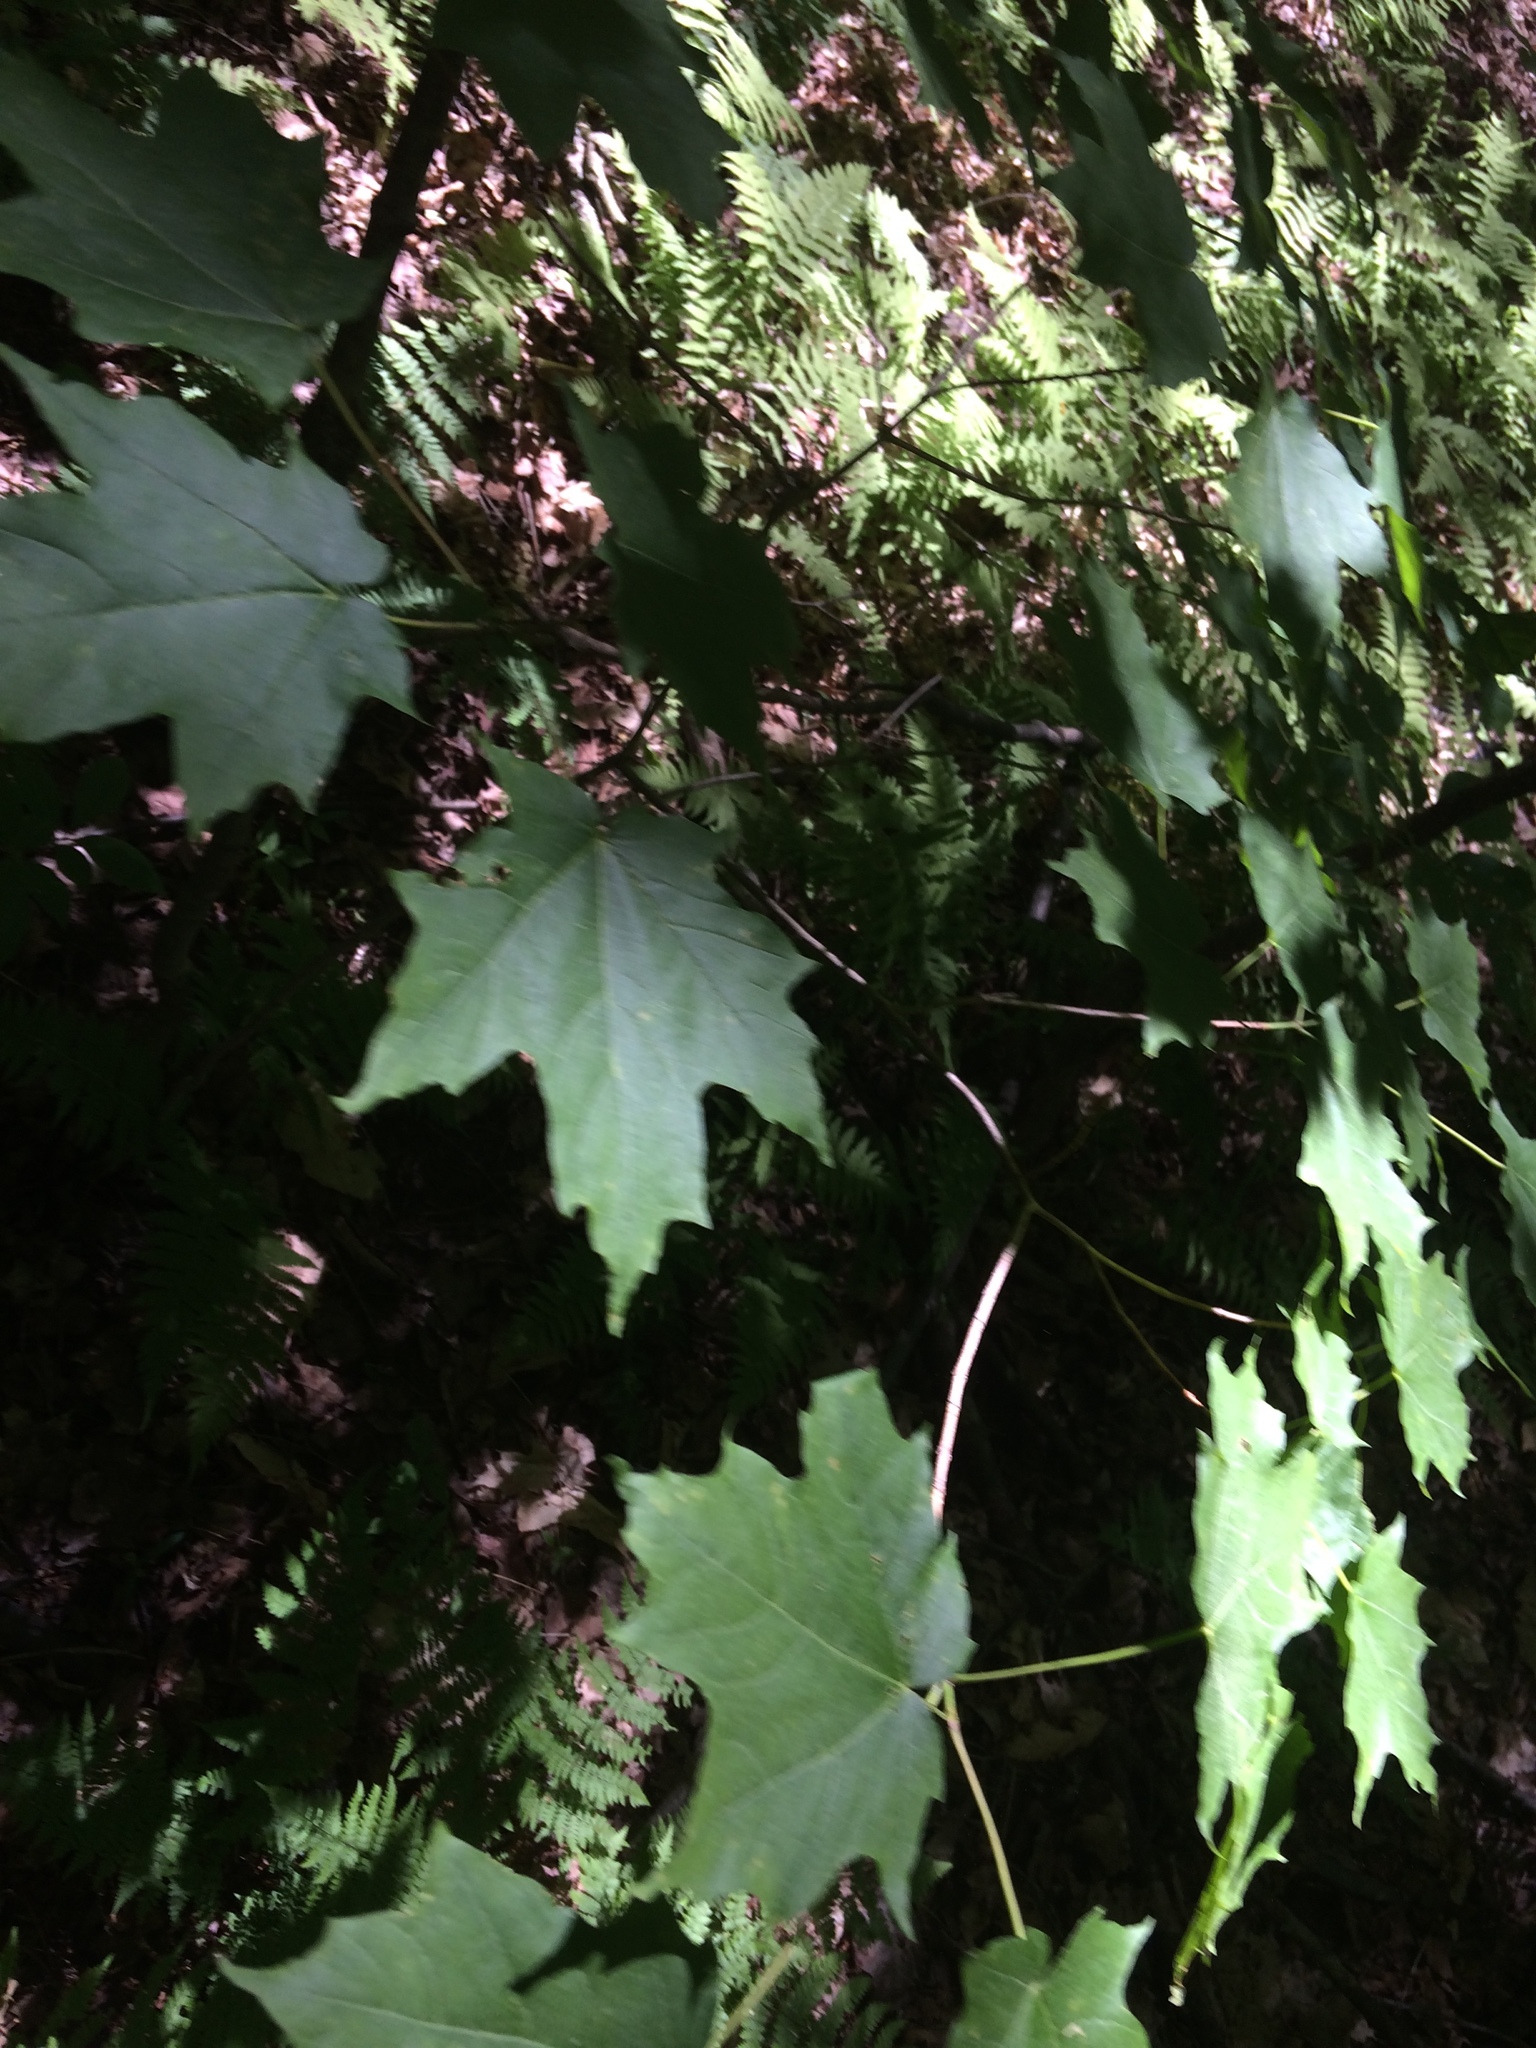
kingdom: Plantae
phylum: Tracheophyta
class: Magnoliopsida
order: Sapindales
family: Sapindaceae
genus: Acer
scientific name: Acer saccharum
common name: Sugar maple
